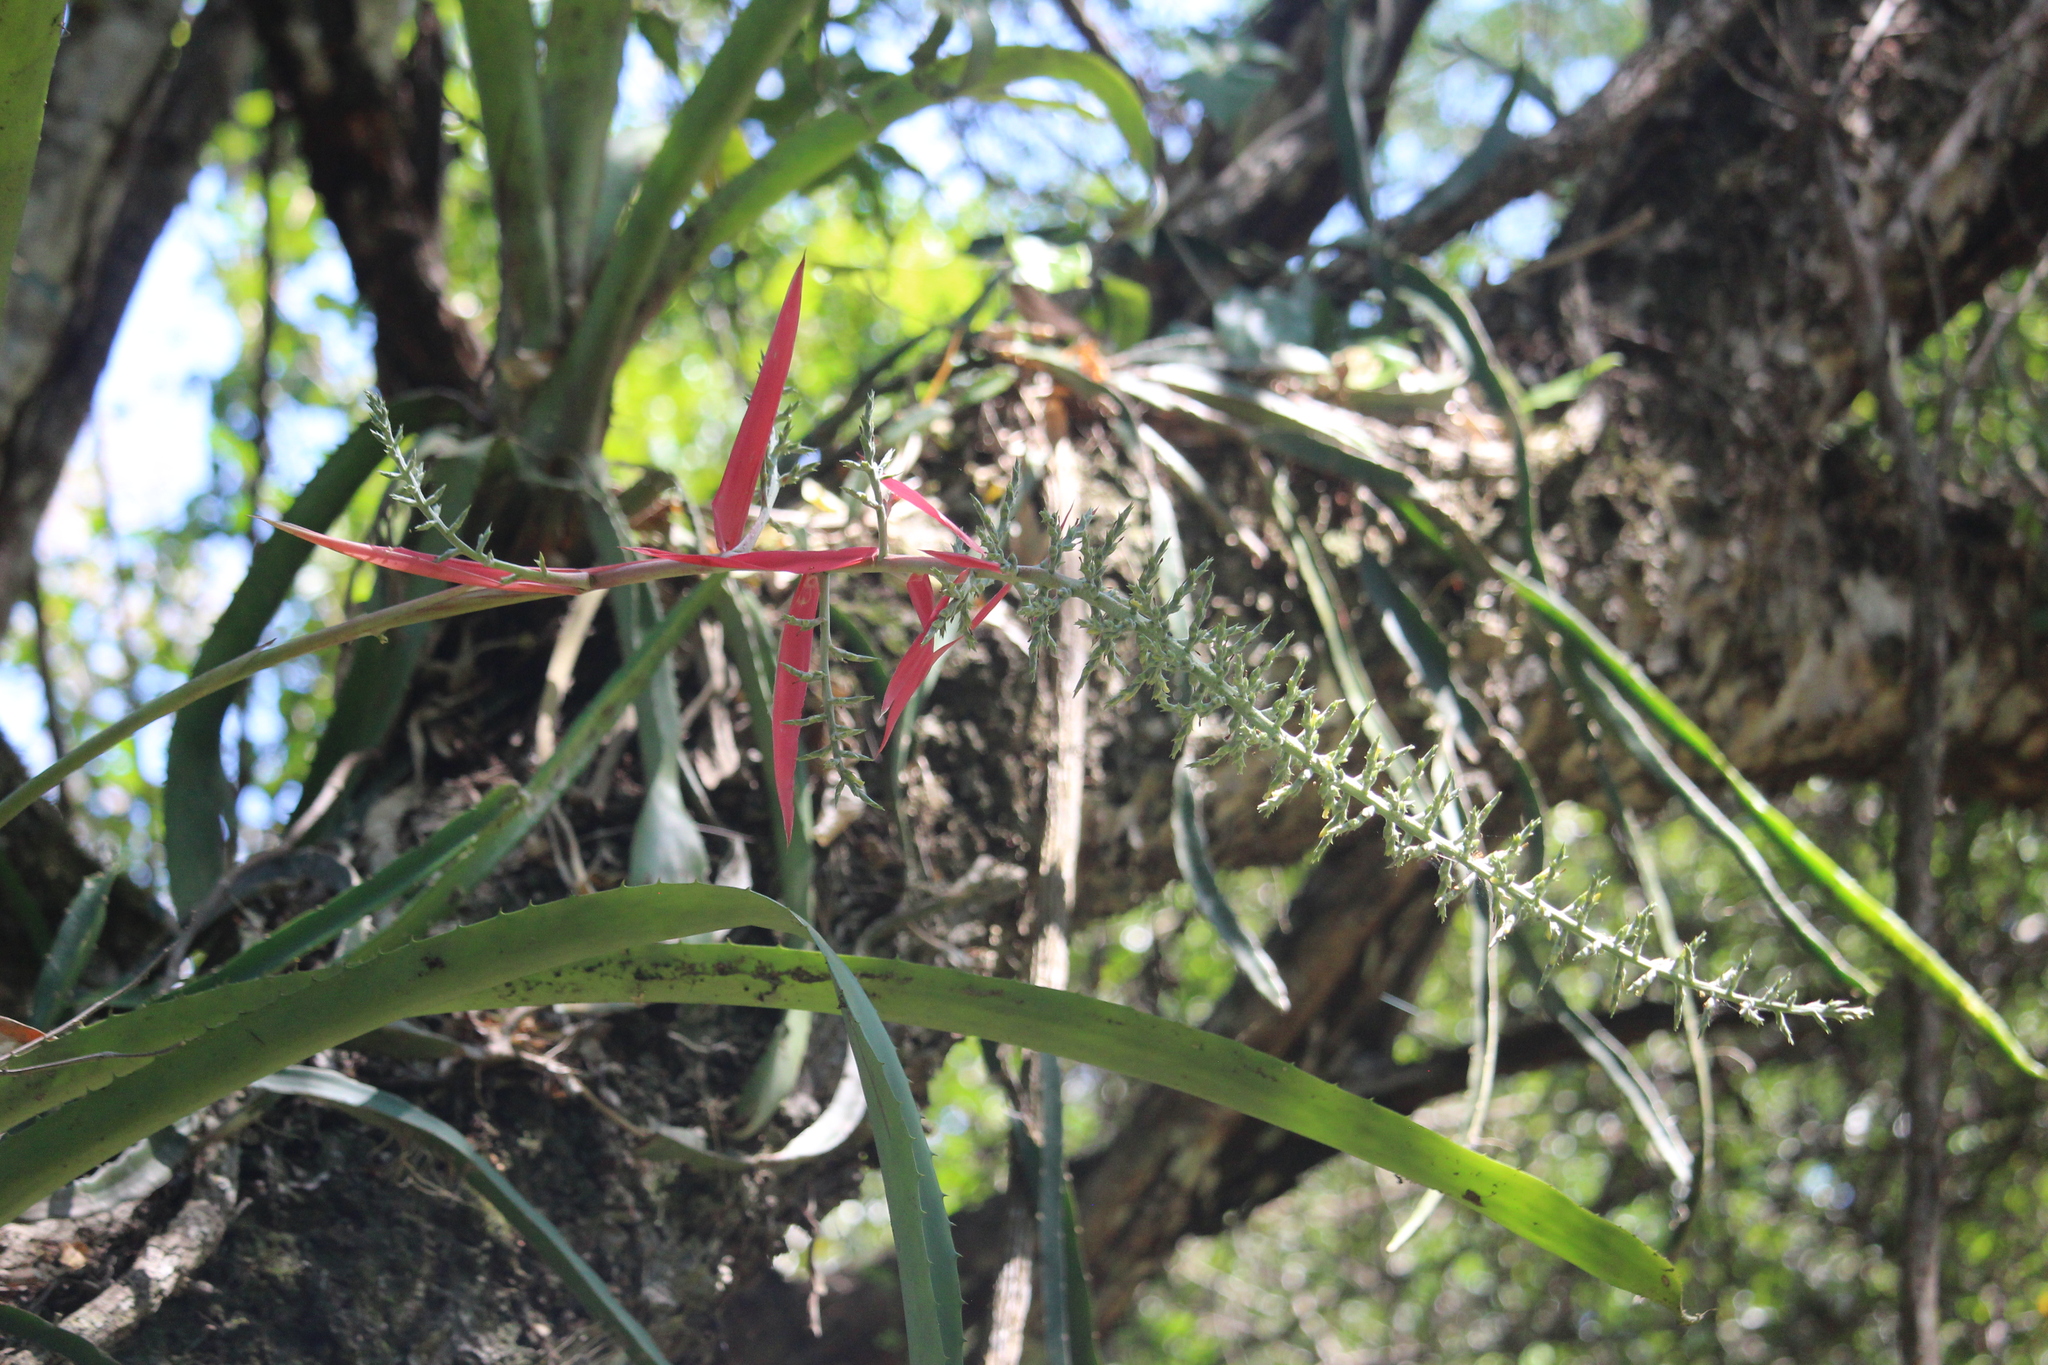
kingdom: Plantae
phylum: Tracheophyta
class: Liliopsida
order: Poales
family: Bromeliaceae
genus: Aechmea
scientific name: Aechmea bracteata
